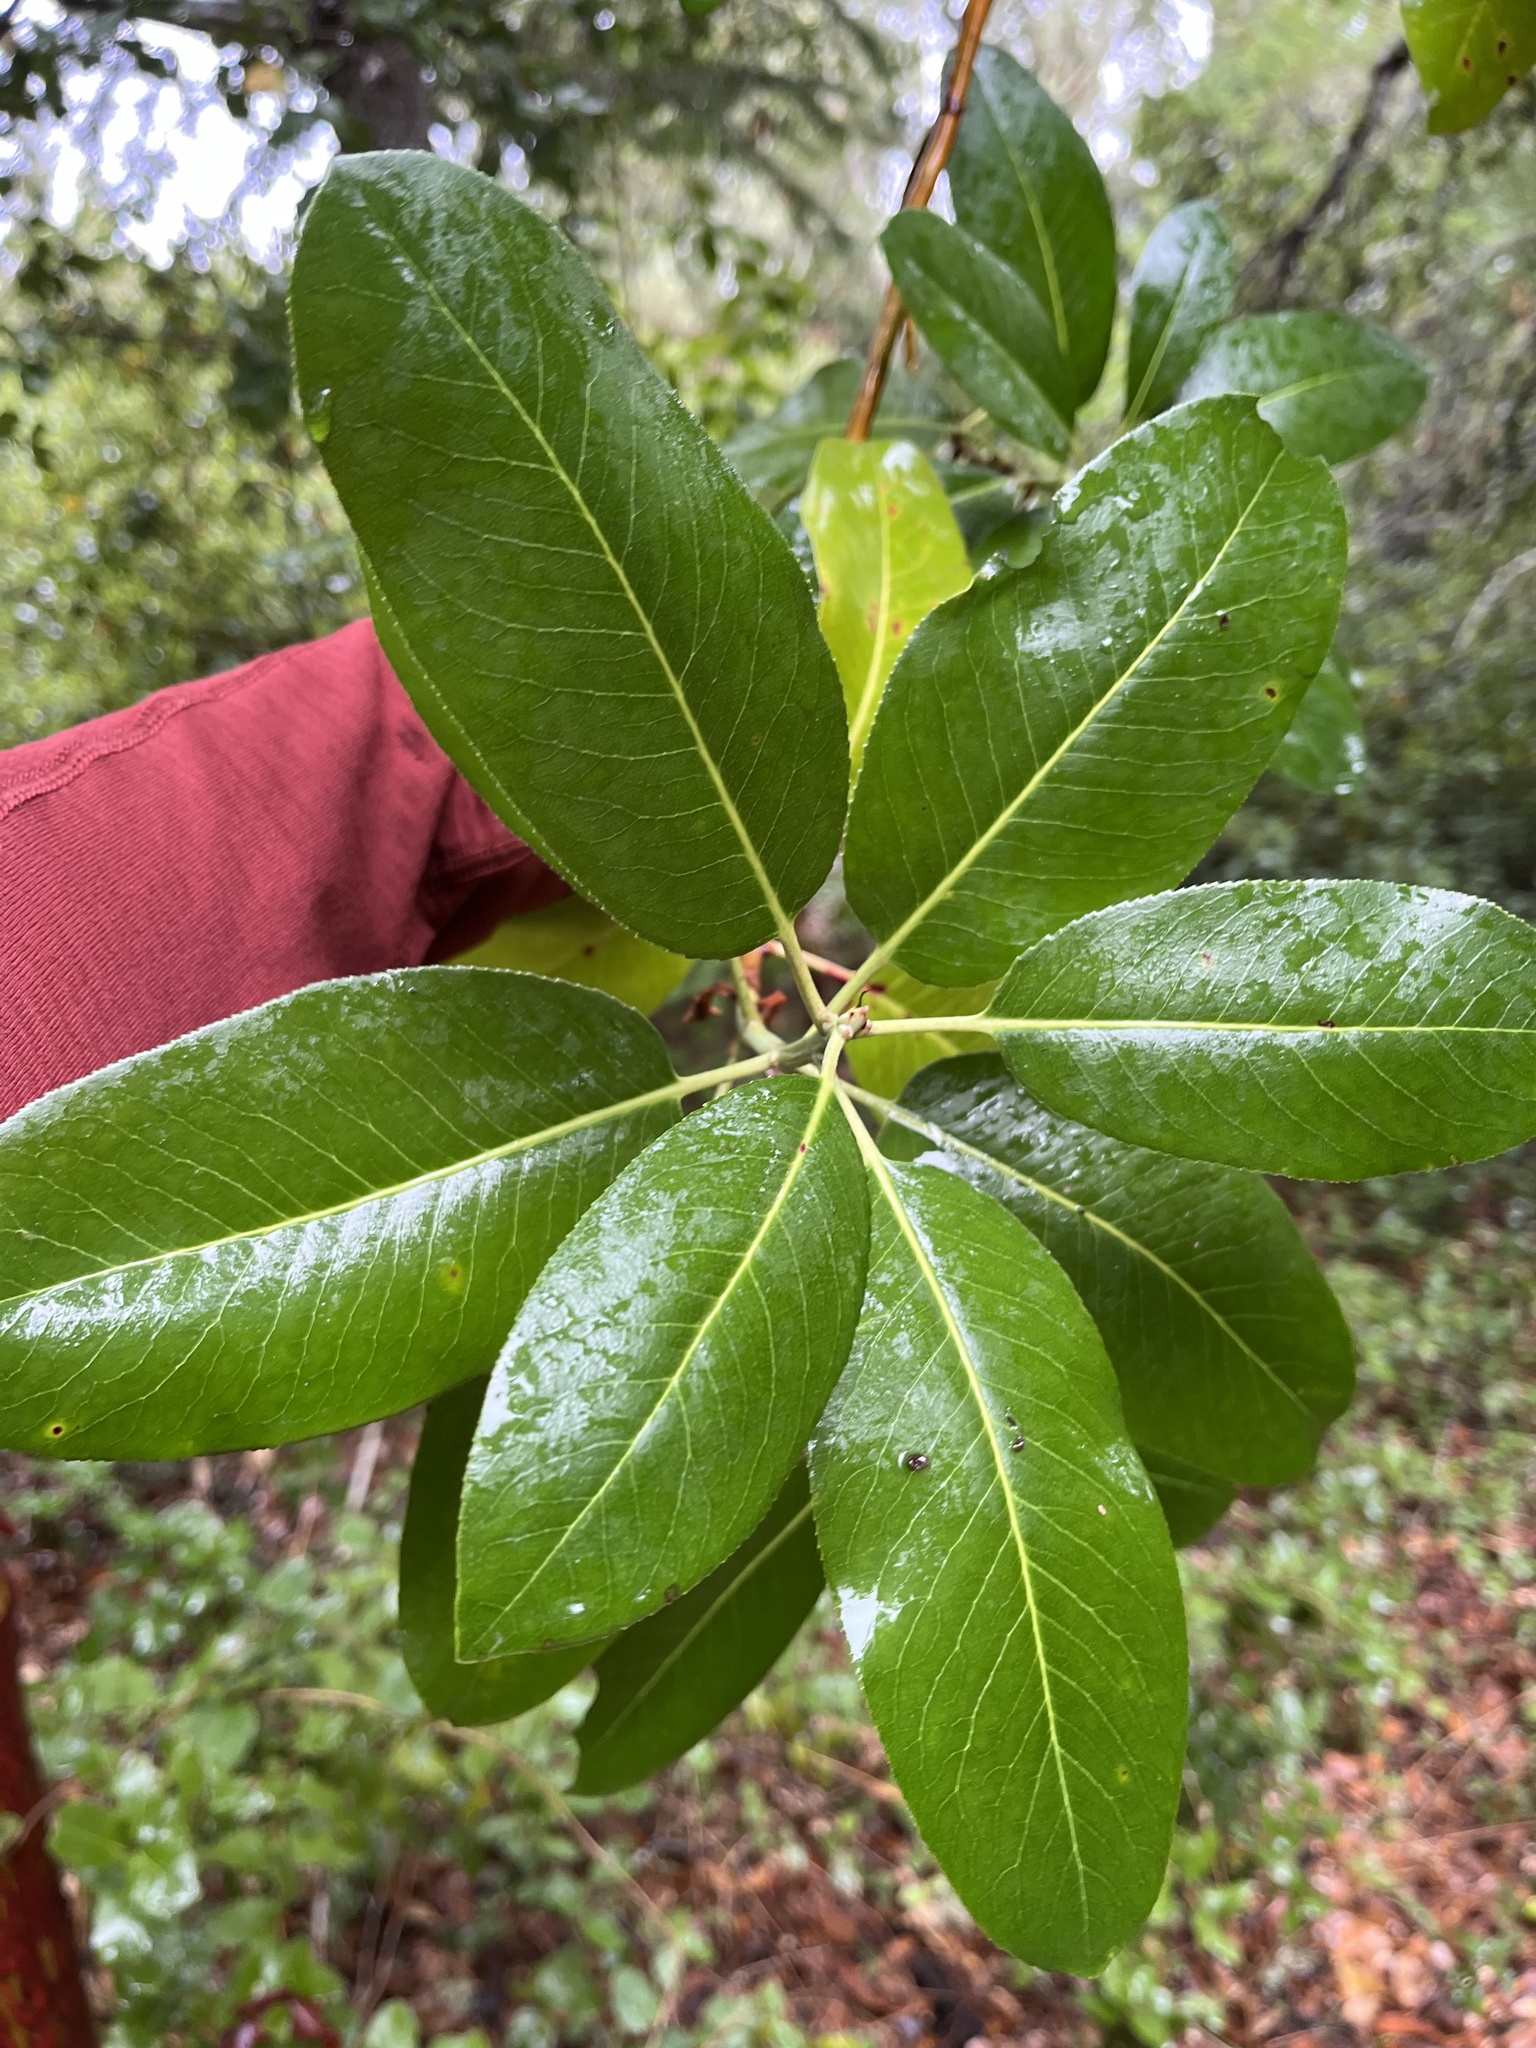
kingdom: Plantae
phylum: Tracheophyta
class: Magnoliopsida
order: Ericales
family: Ericaceae
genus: Arbutus
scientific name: Arbutus menziesii
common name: Pacific madrone
